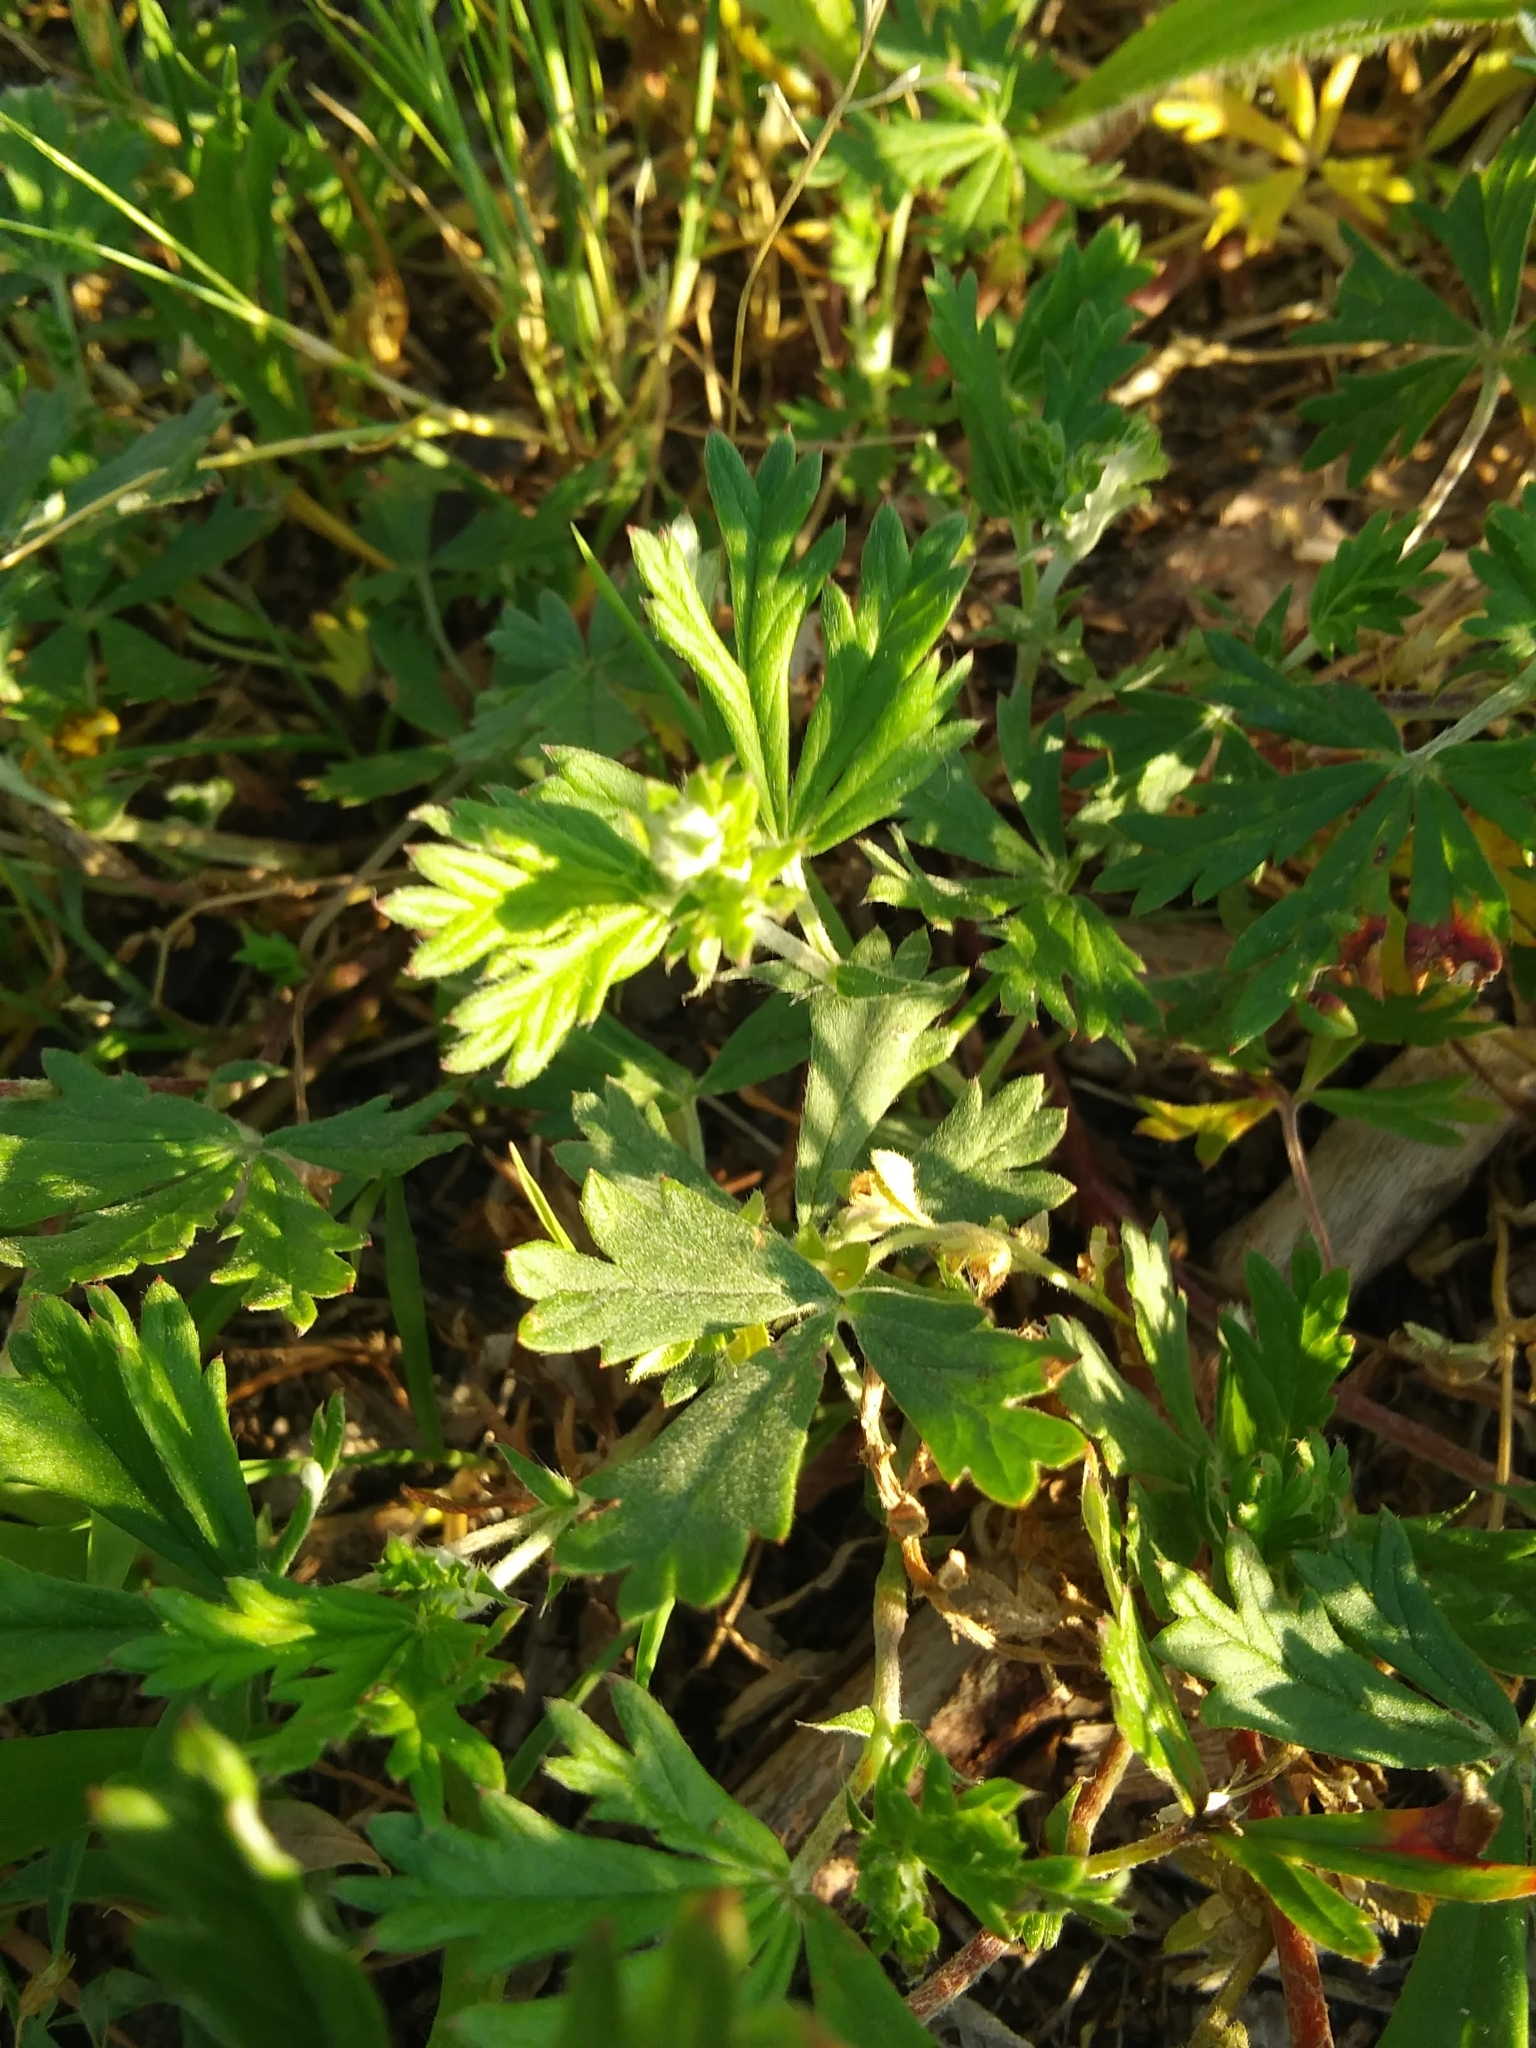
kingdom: Plantae
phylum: Tracheophyta
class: Magnoliopsida
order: Rosales
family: Rosaceae
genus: Potentilla
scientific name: Potentilla argentea
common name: Hoary cinquefoil
